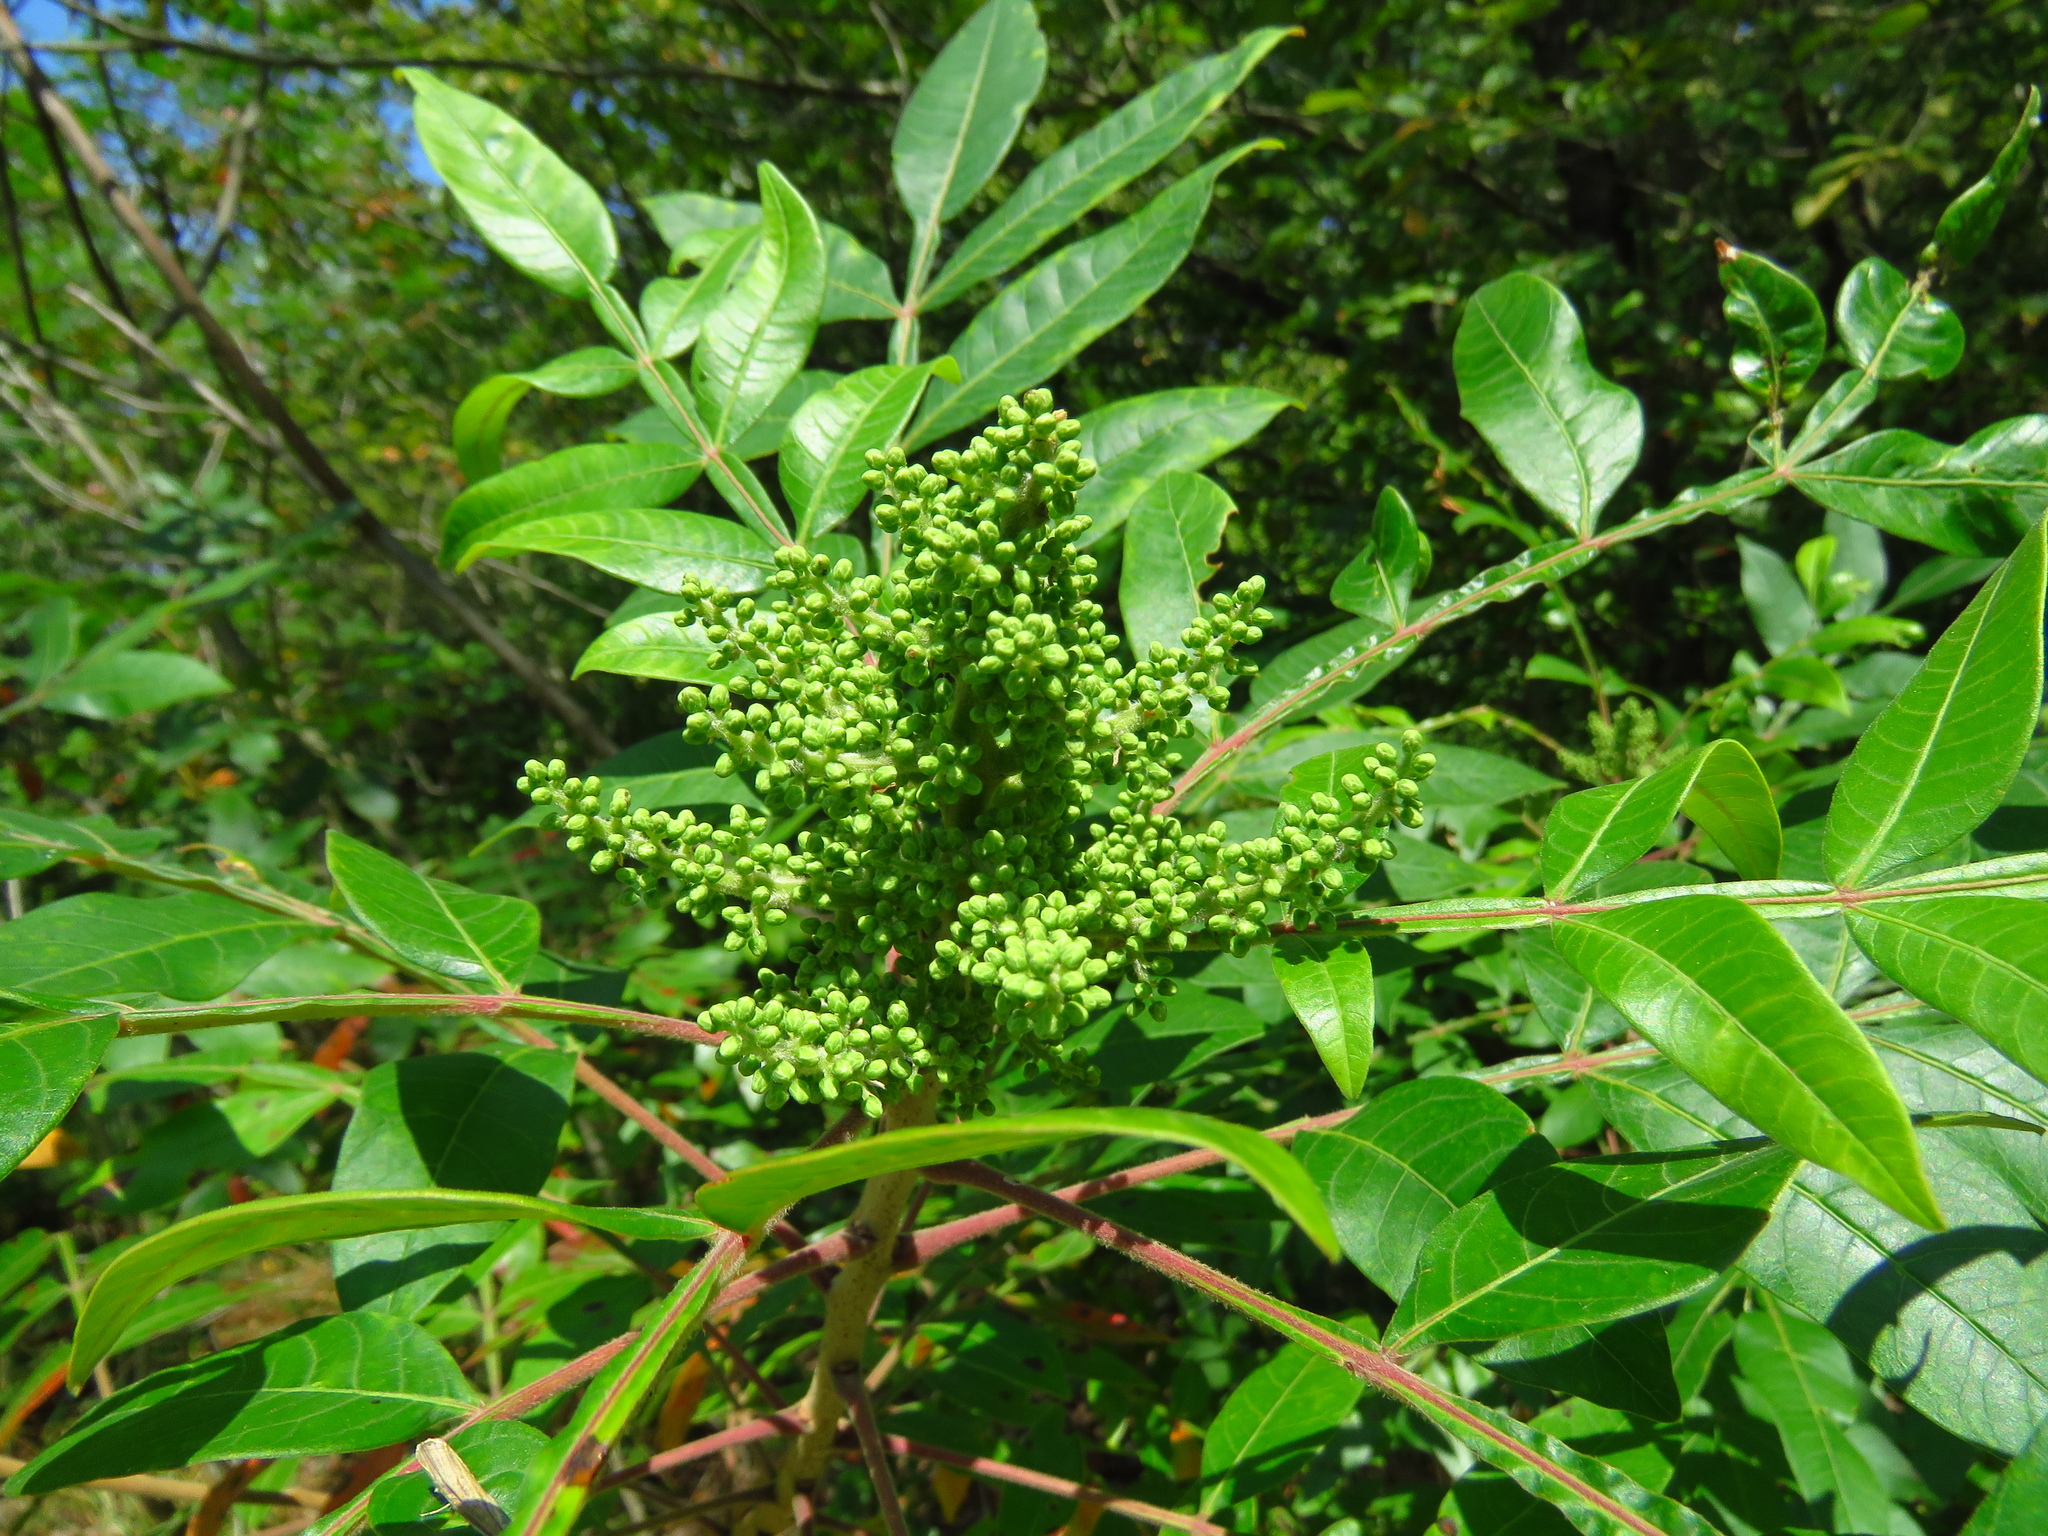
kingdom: Plantae
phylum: Tracheophyta
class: Magnoliopsida
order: Sapindales
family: Anacardiaceae
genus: Rhus
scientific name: Rhus copallina
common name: Shining sumac
